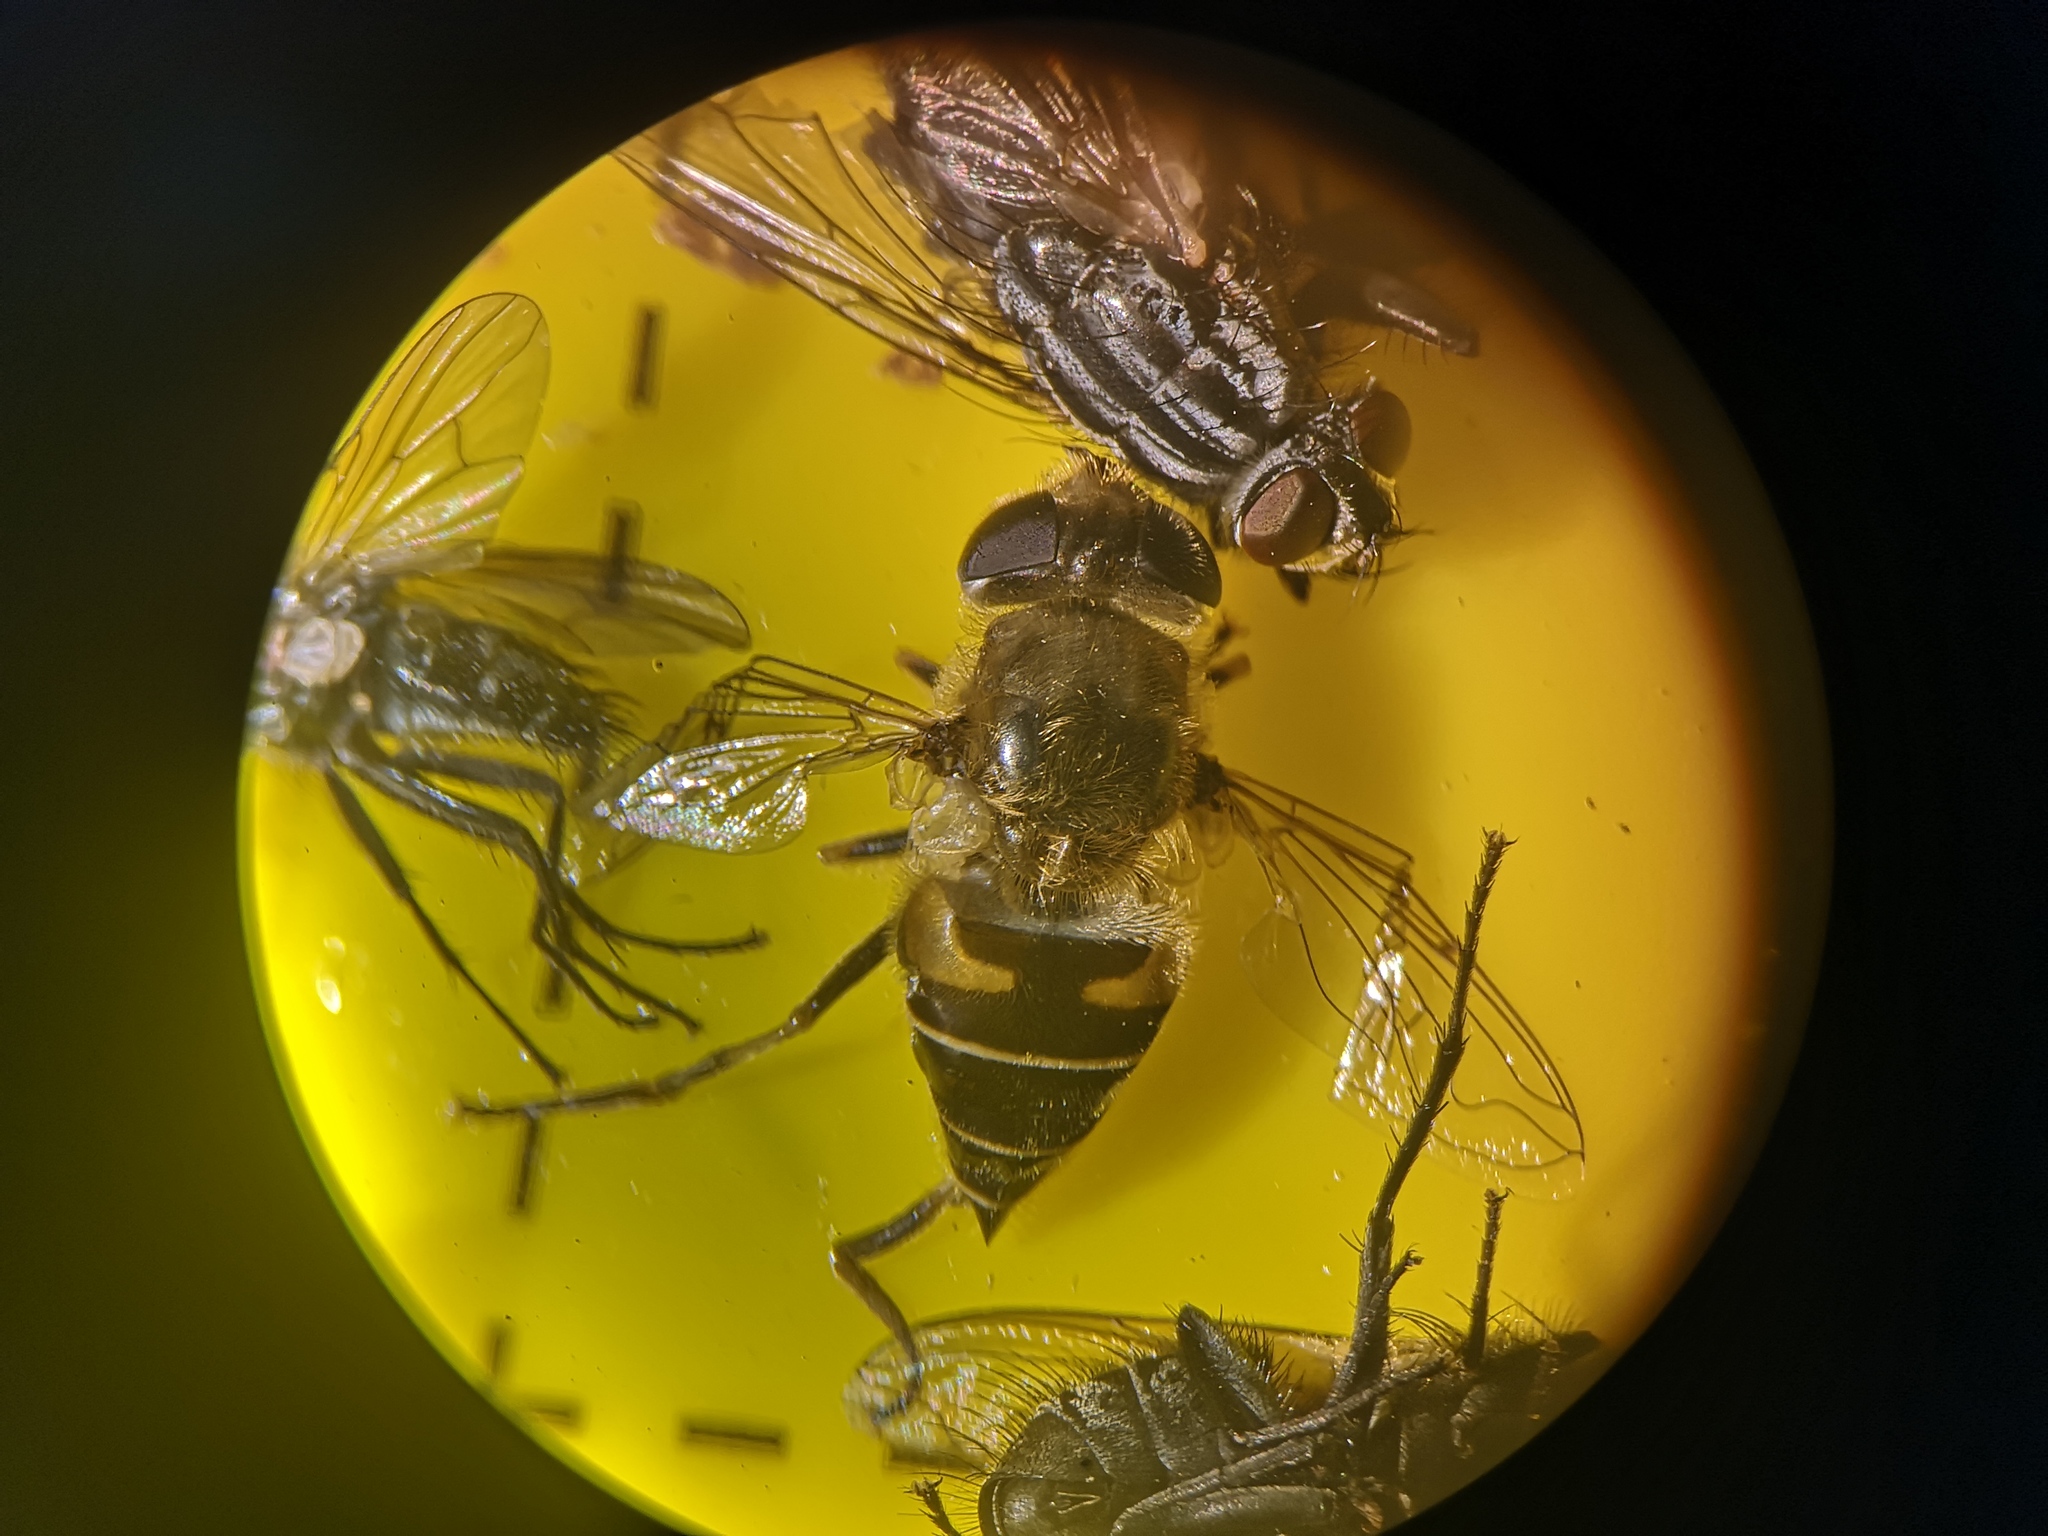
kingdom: Animalia
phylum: Arthropoda
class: Insecta
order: Diptera
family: Syrphidae
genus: Eristalis
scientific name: Eristalis nemorum
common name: Orange-spined drone fly
